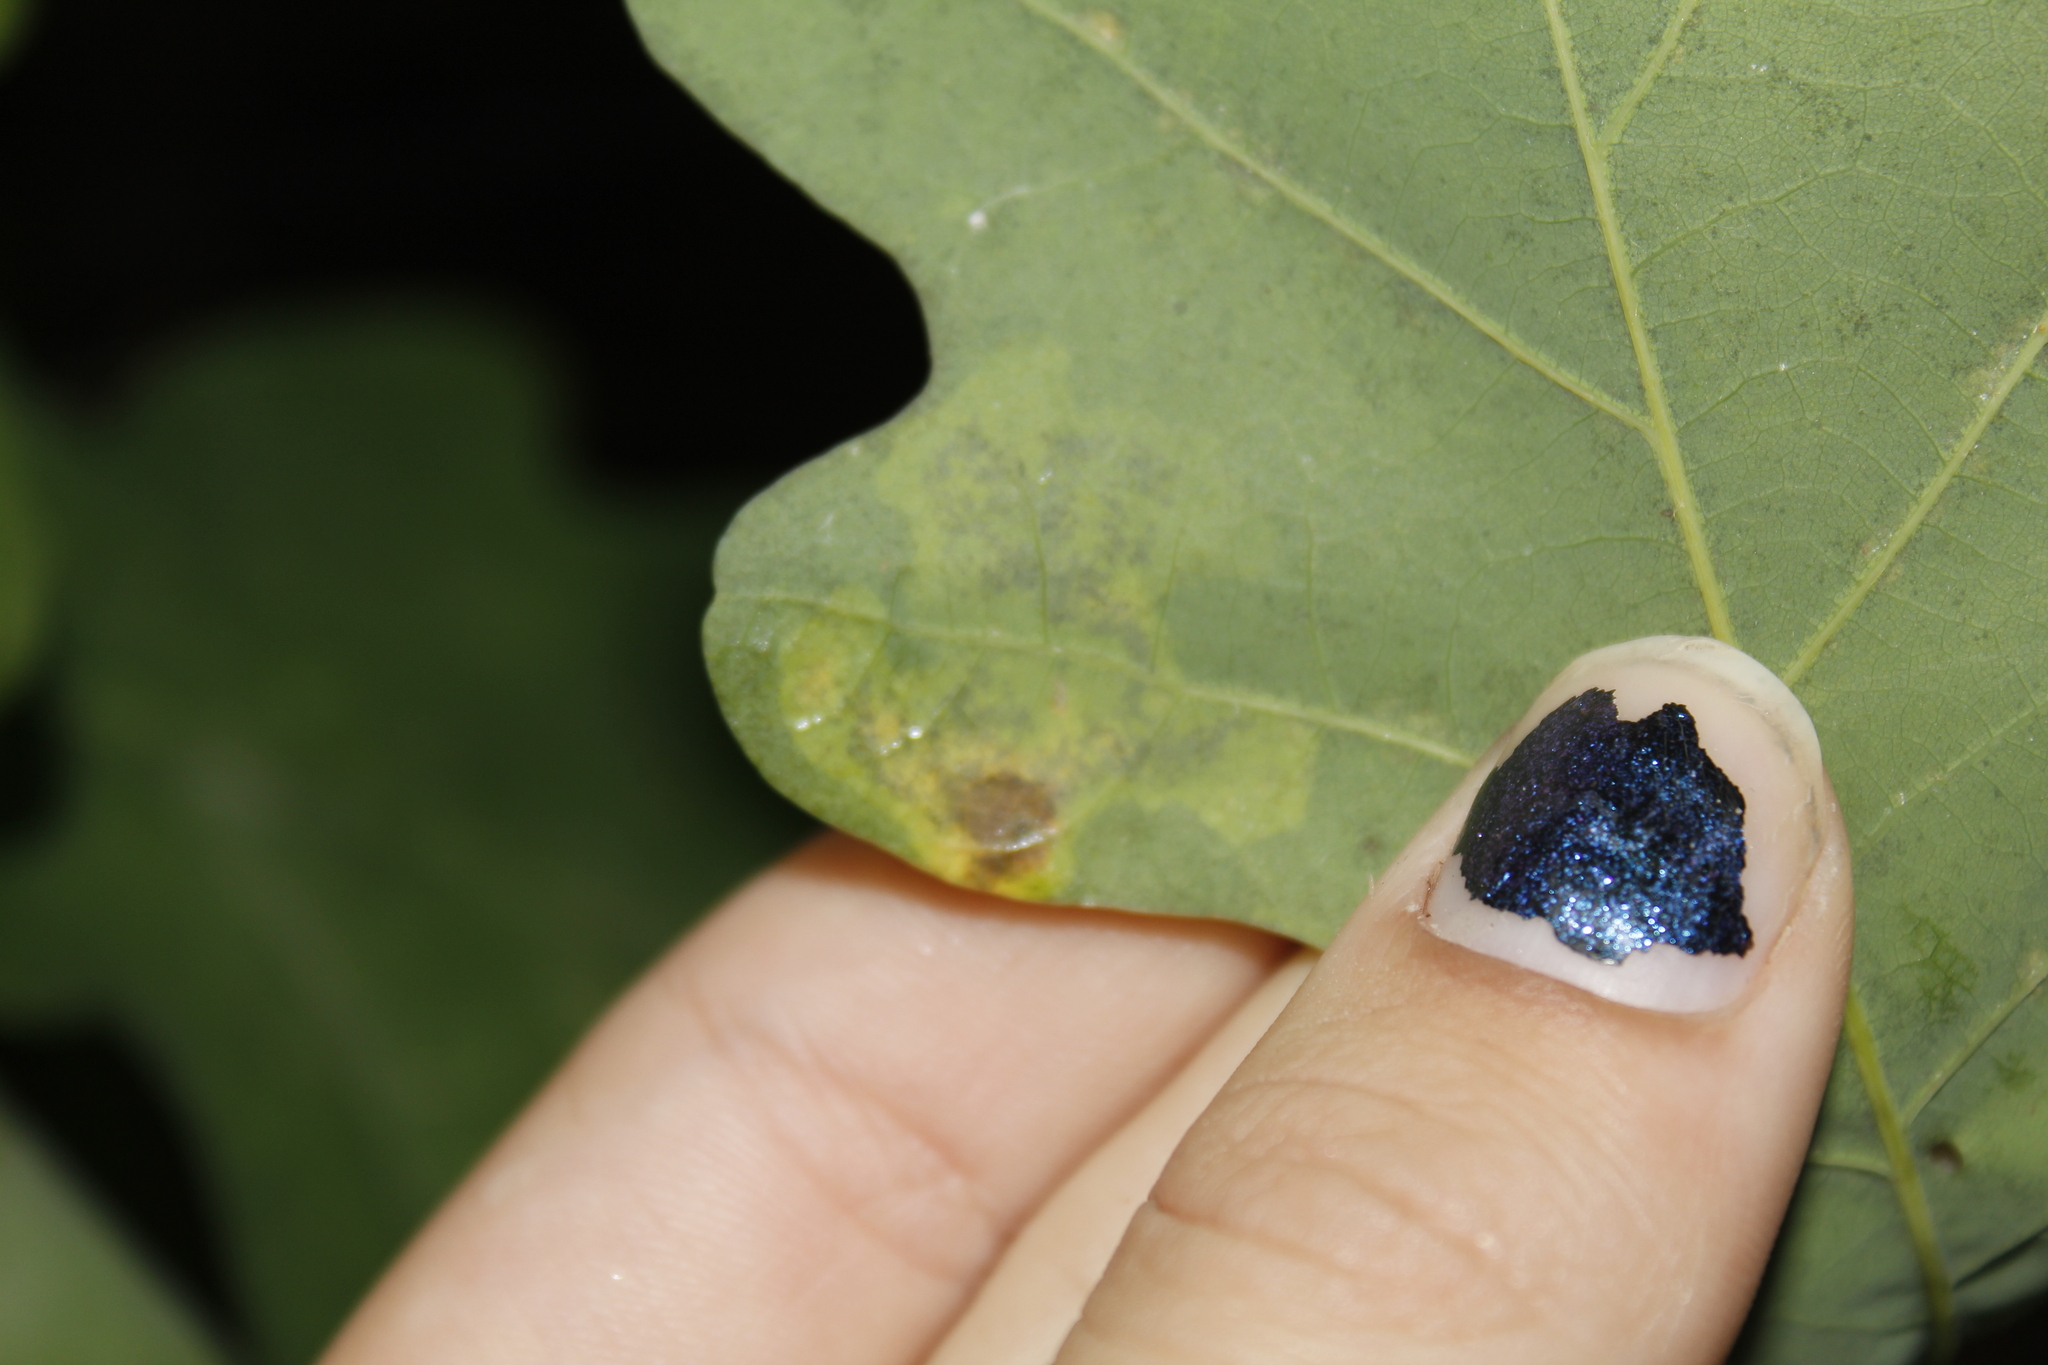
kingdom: Animalia
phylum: Arthropoda
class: Insecta
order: Lepidoptera
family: Gracillariidae
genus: Cameraria
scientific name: Cameraria
